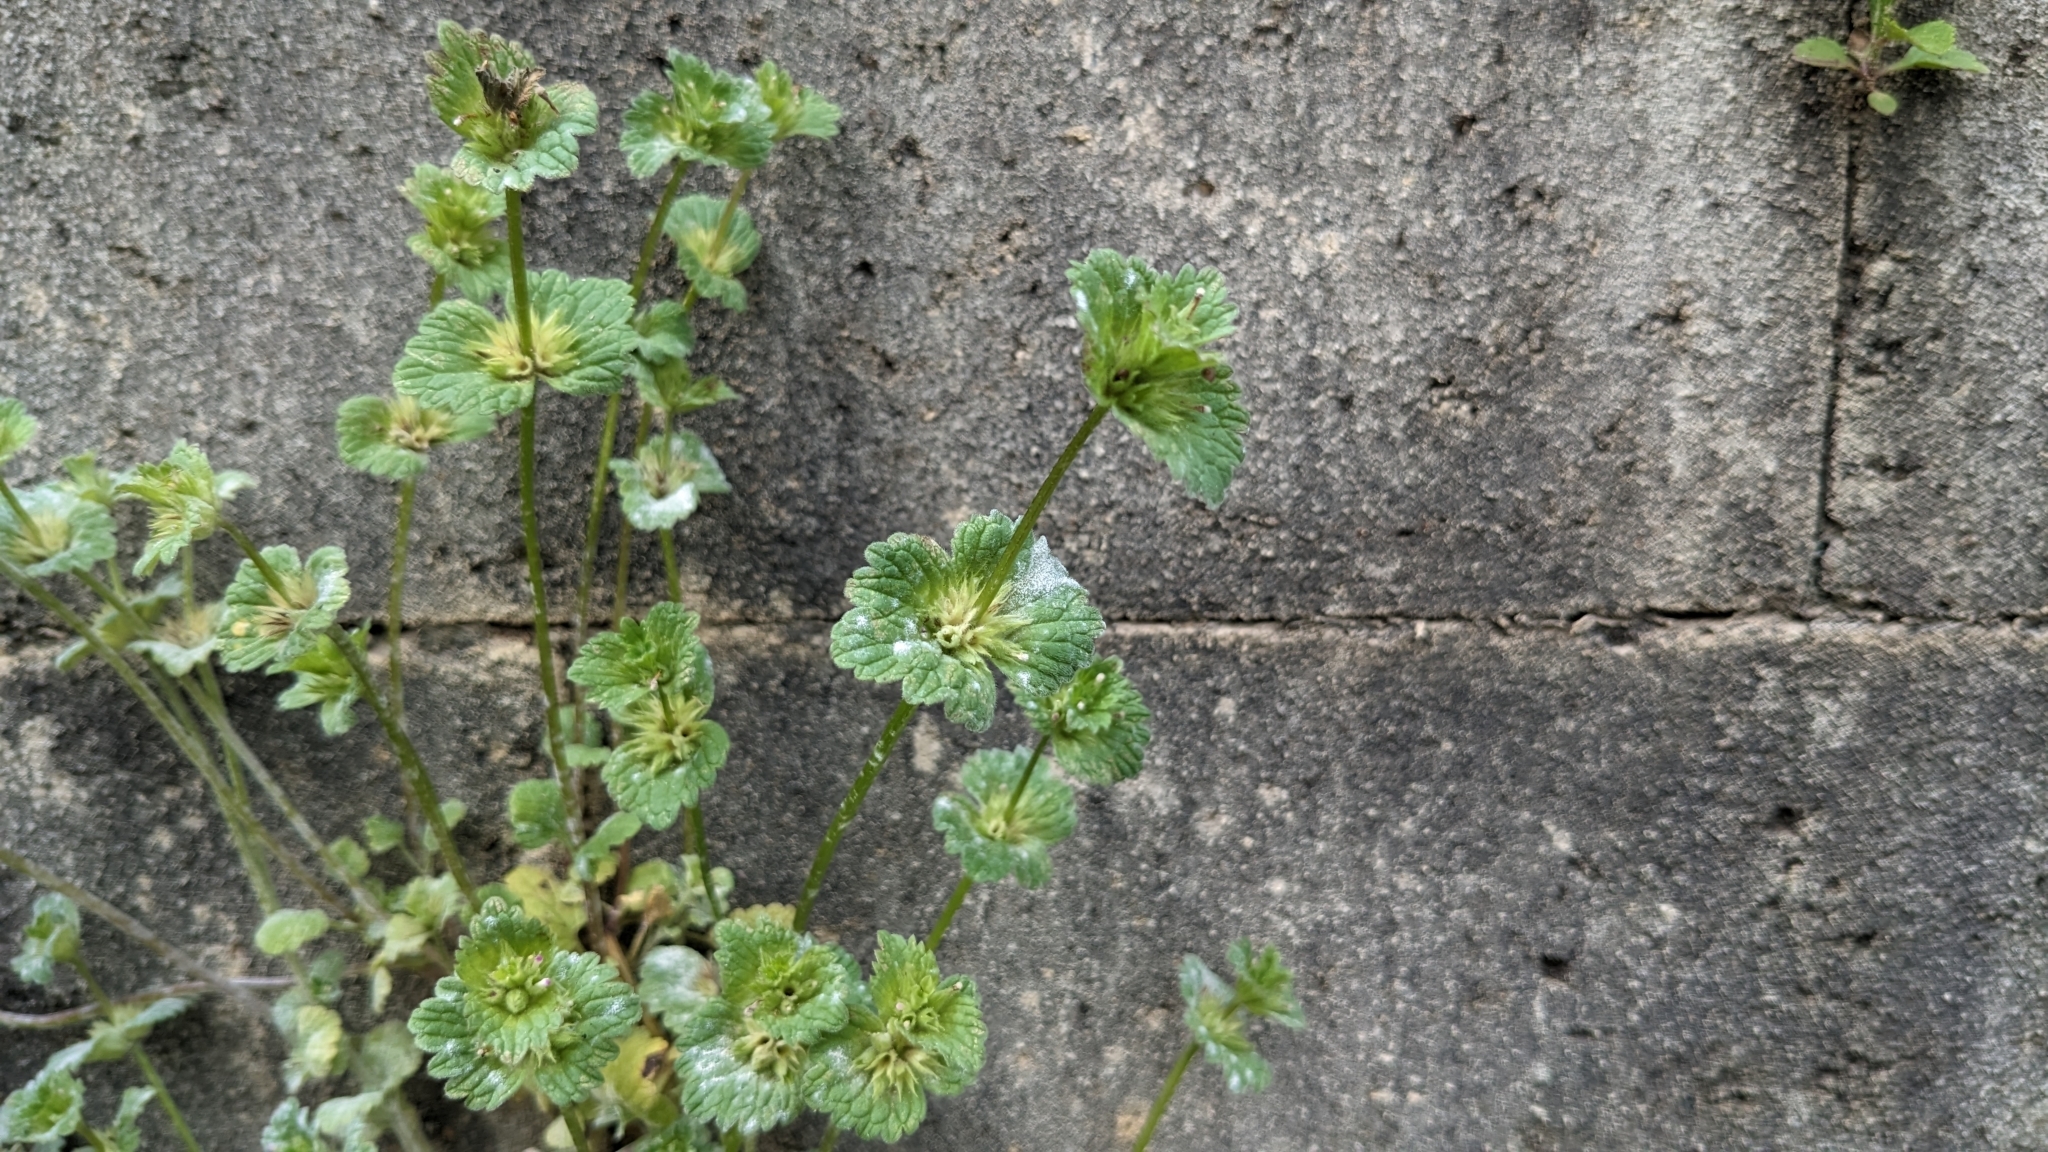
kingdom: Plantae
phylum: Tracheophyta
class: Magnoliopsida
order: Lamiales
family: Lamiaceae
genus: Lamium
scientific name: Lamium amplexicaule
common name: Henbit dead-nettle
